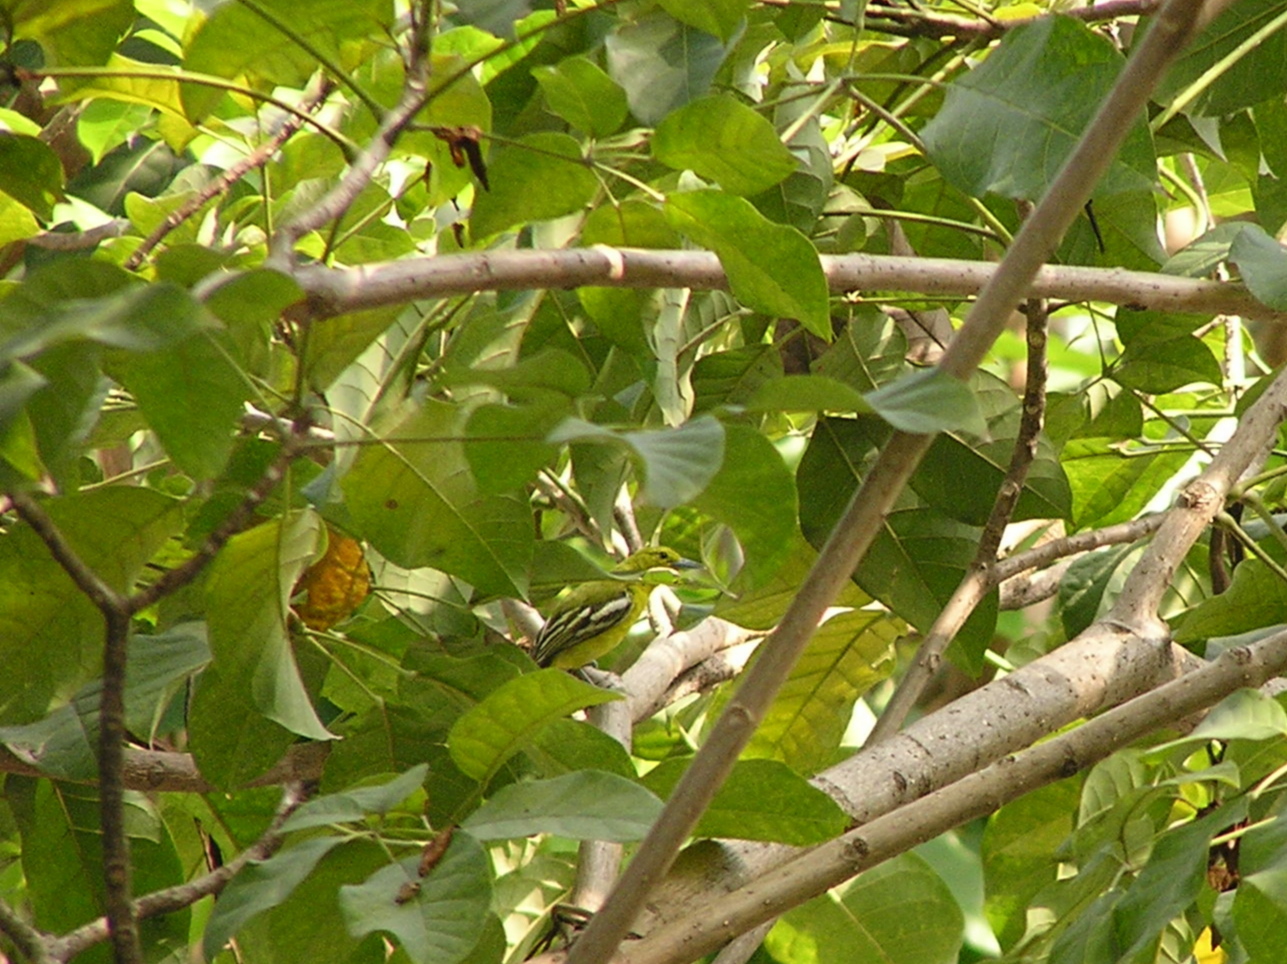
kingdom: Animalia
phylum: Chordata
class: Aves
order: Passeriformes
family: Aegithinidae
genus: Aegithina
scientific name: Aegithina tiphia
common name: Common iora
